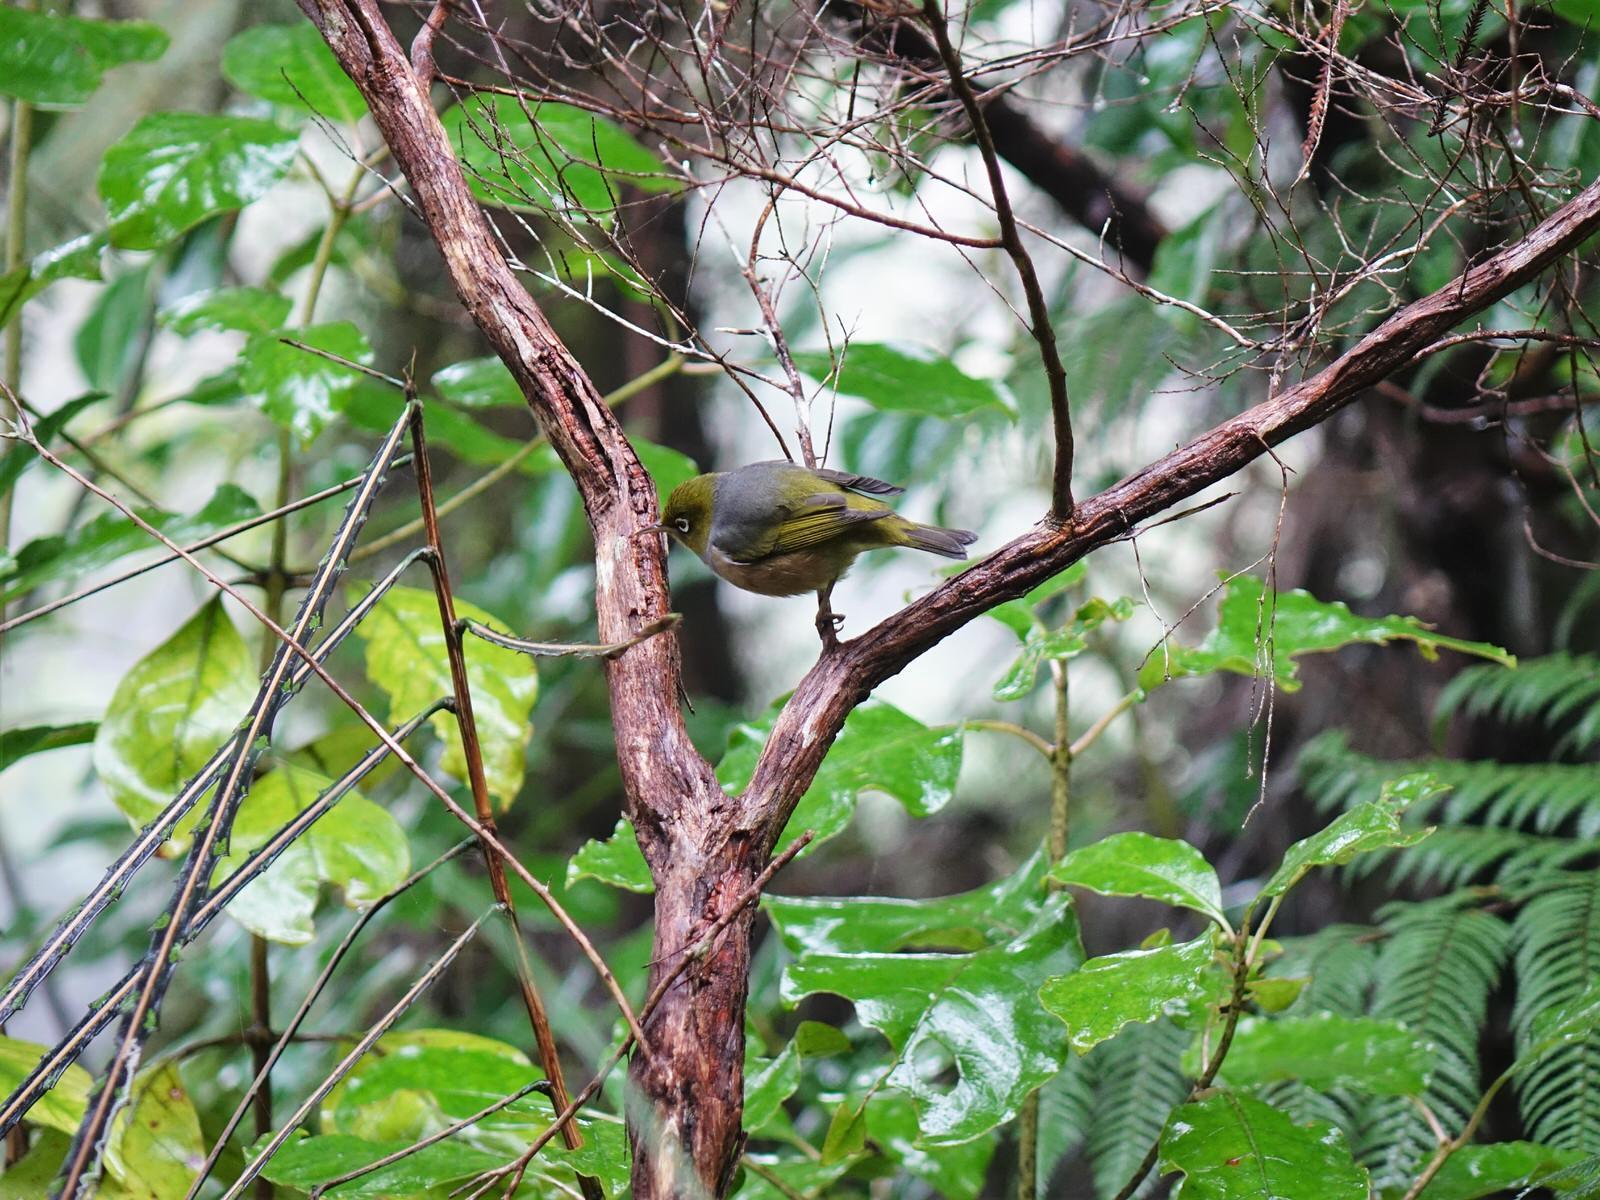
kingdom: Animalia
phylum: Chordata
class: Aves
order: Passeriformes
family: Zosteropidae
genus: Zosterops
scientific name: Zosterops lateralis
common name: Silvereye
